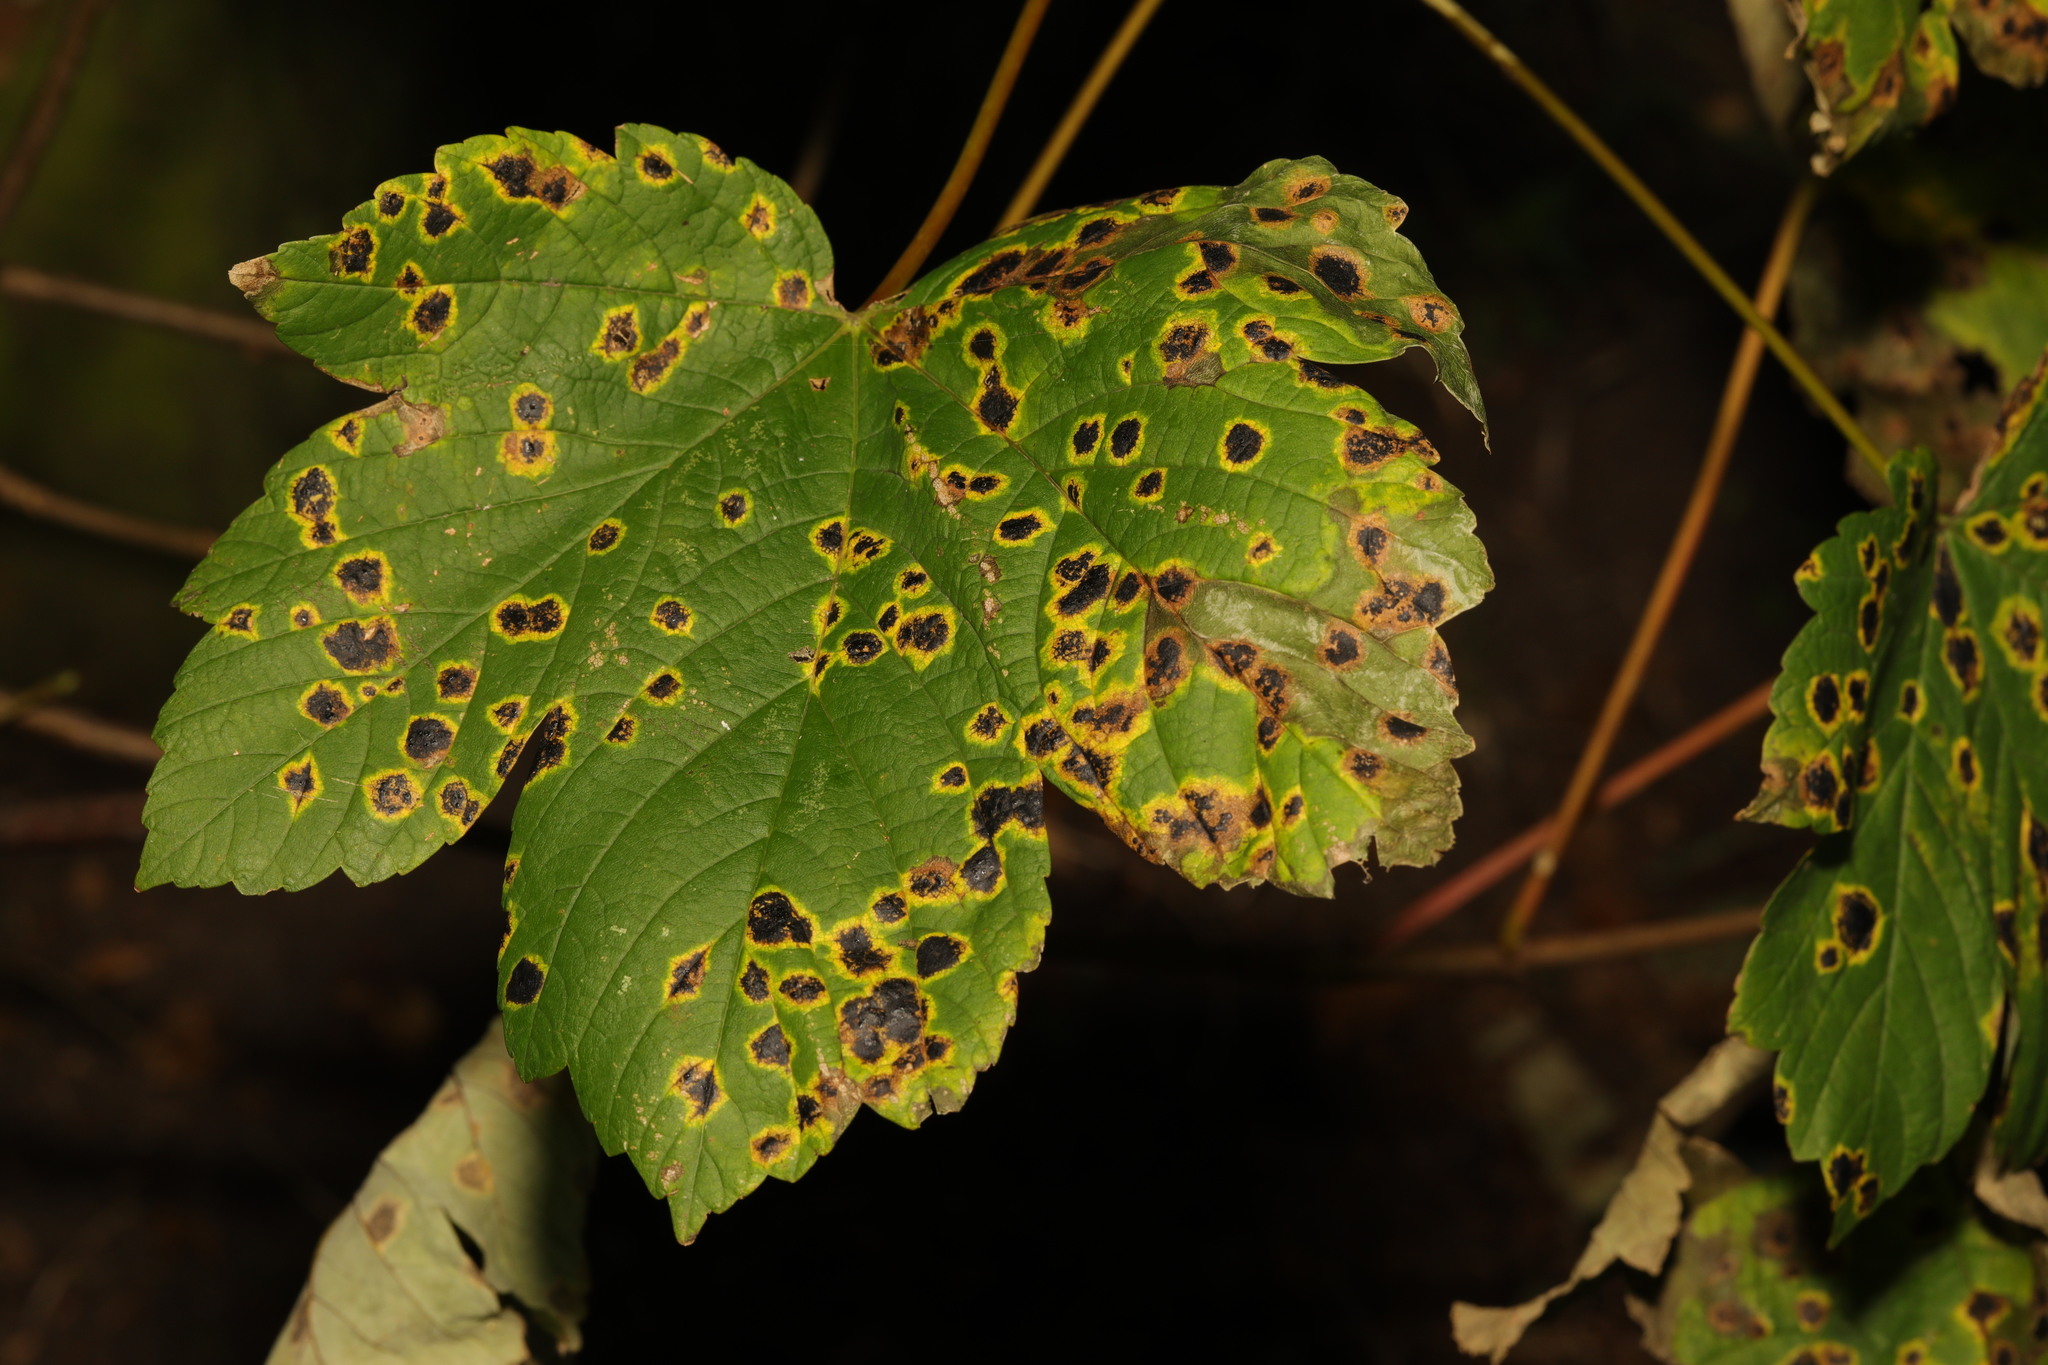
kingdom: Plantae
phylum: Tracheophyta
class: Magnoliopsida
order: Sapindales
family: Sapindaceae
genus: Acer
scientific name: Acer pseudoplatanus
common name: Sycamore
